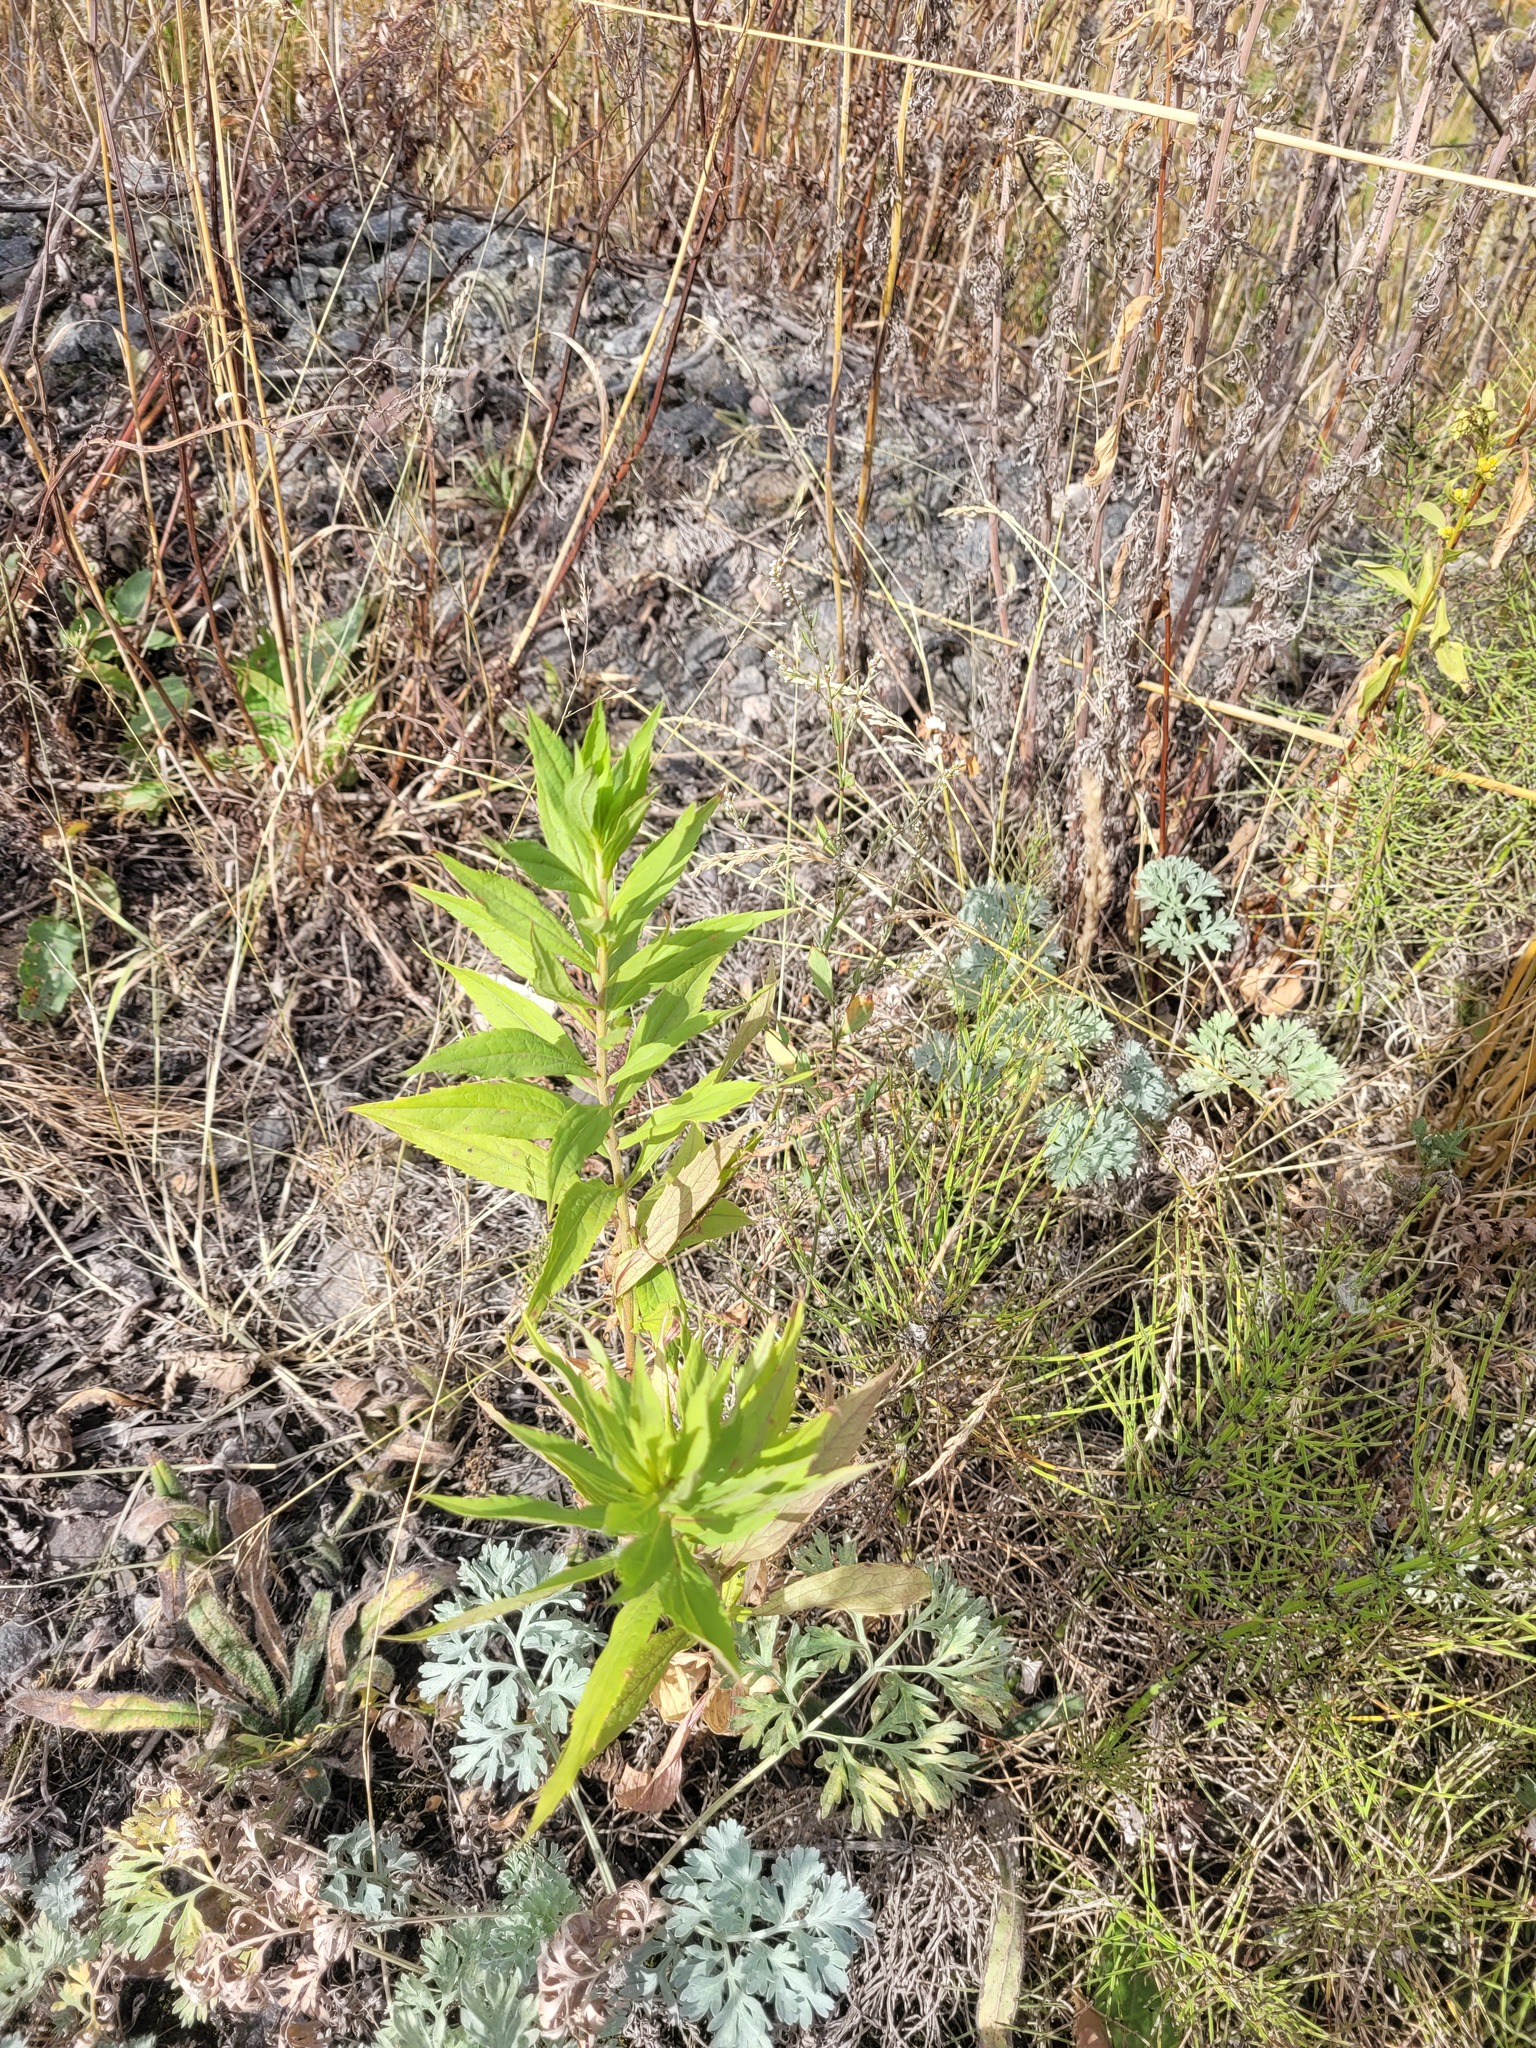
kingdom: Plantae
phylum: Tracheophyta
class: Magnoliopsida
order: Asterales
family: Asteraceae
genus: Solidago
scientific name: Solidago canadensis
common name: Canada goldenrod
